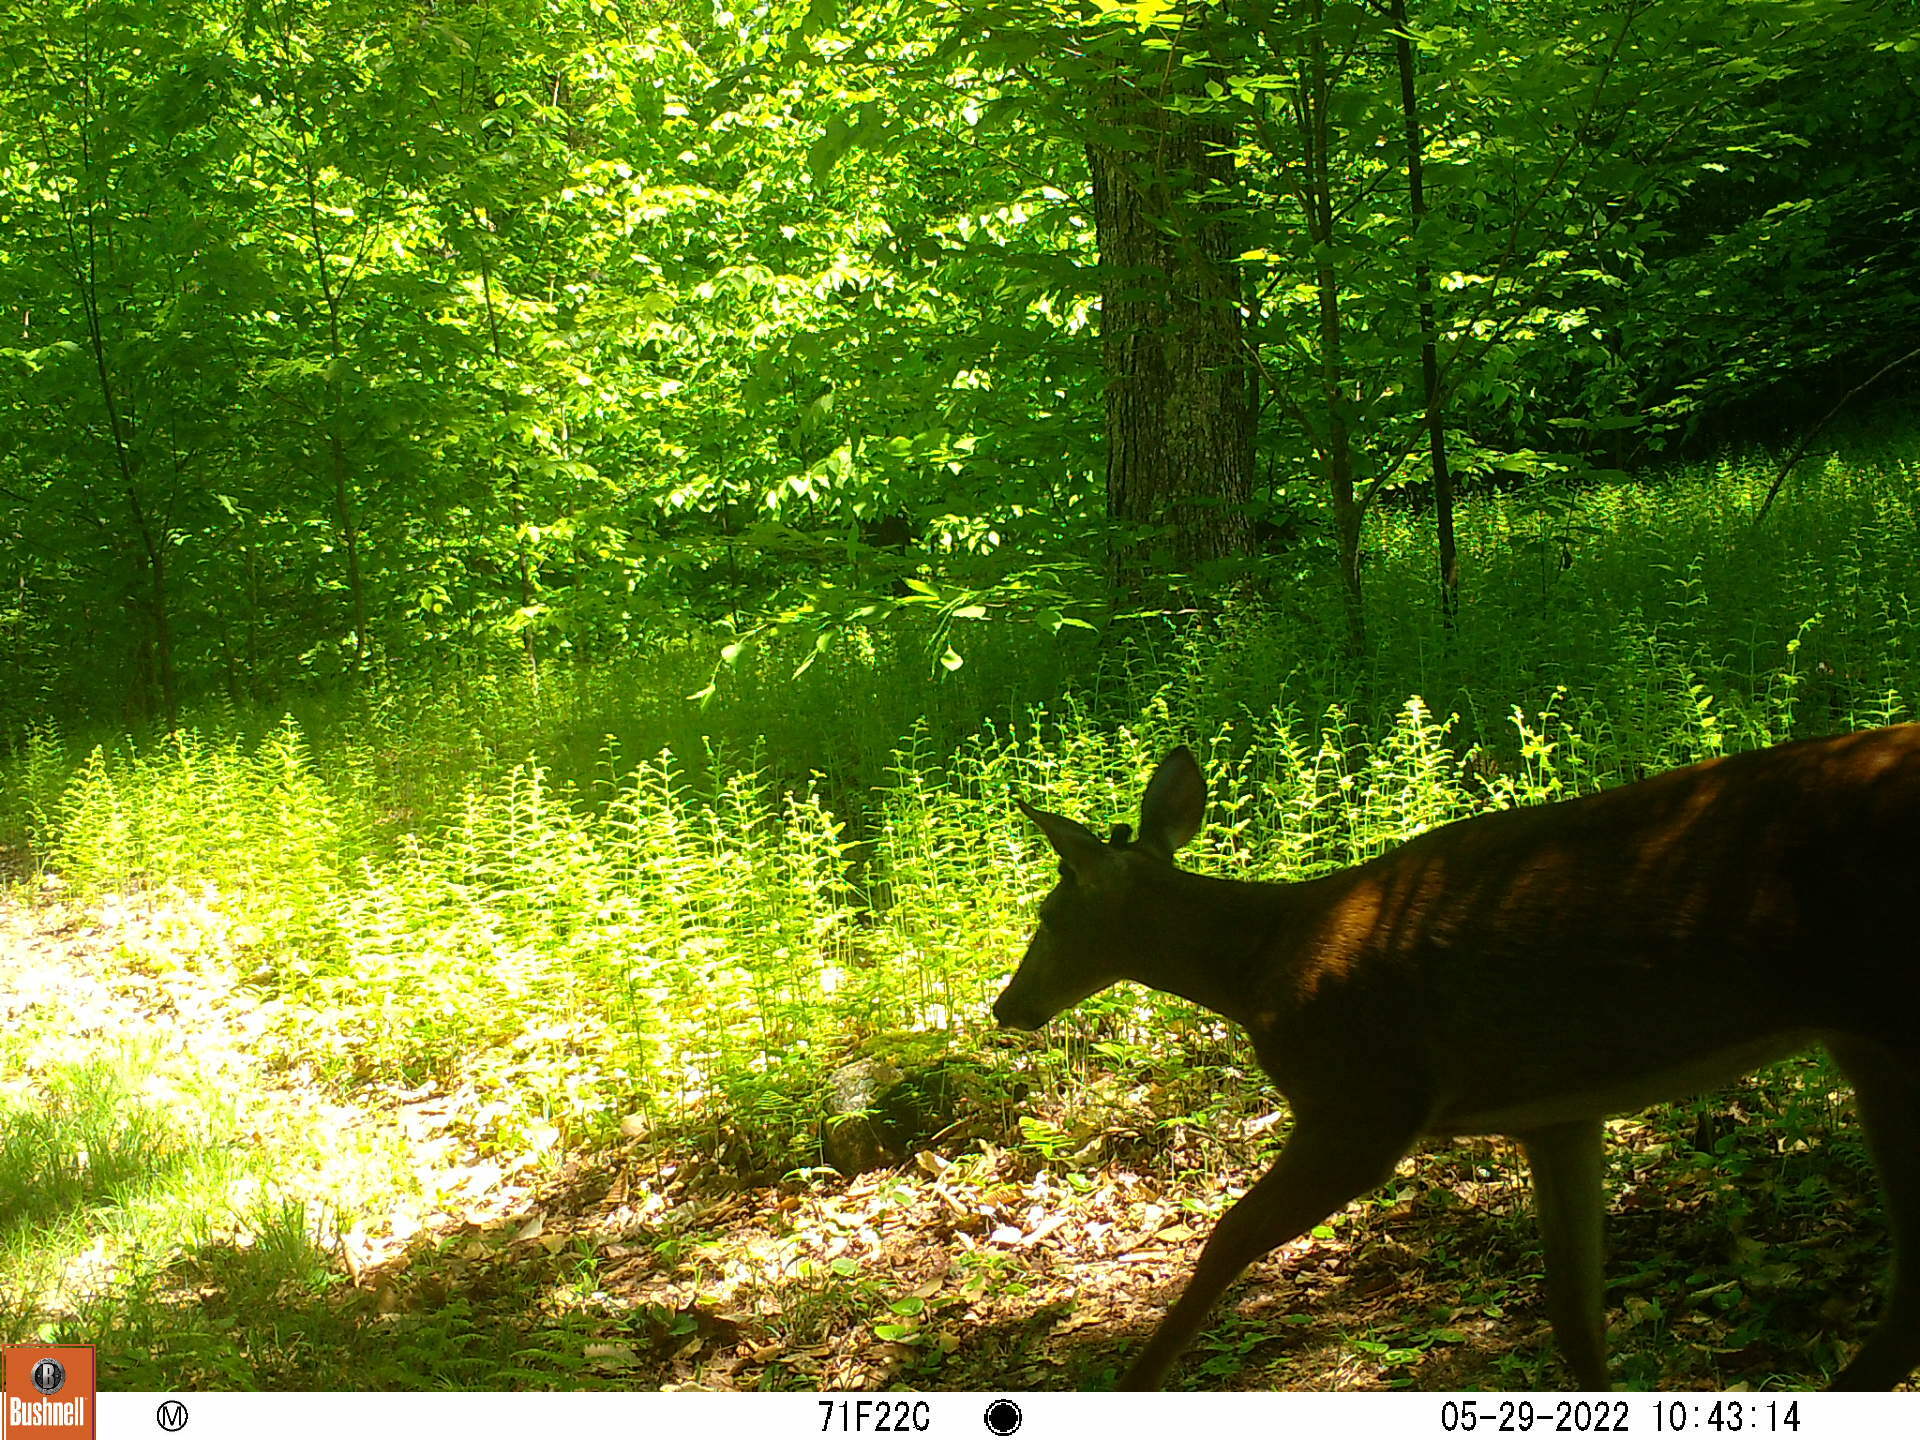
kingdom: Animalia
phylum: Chordata
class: Mammalia
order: Artiodactyla
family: Cervidae
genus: Odocoileus
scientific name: Odocoileus virginianus
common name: White-tailed deer
